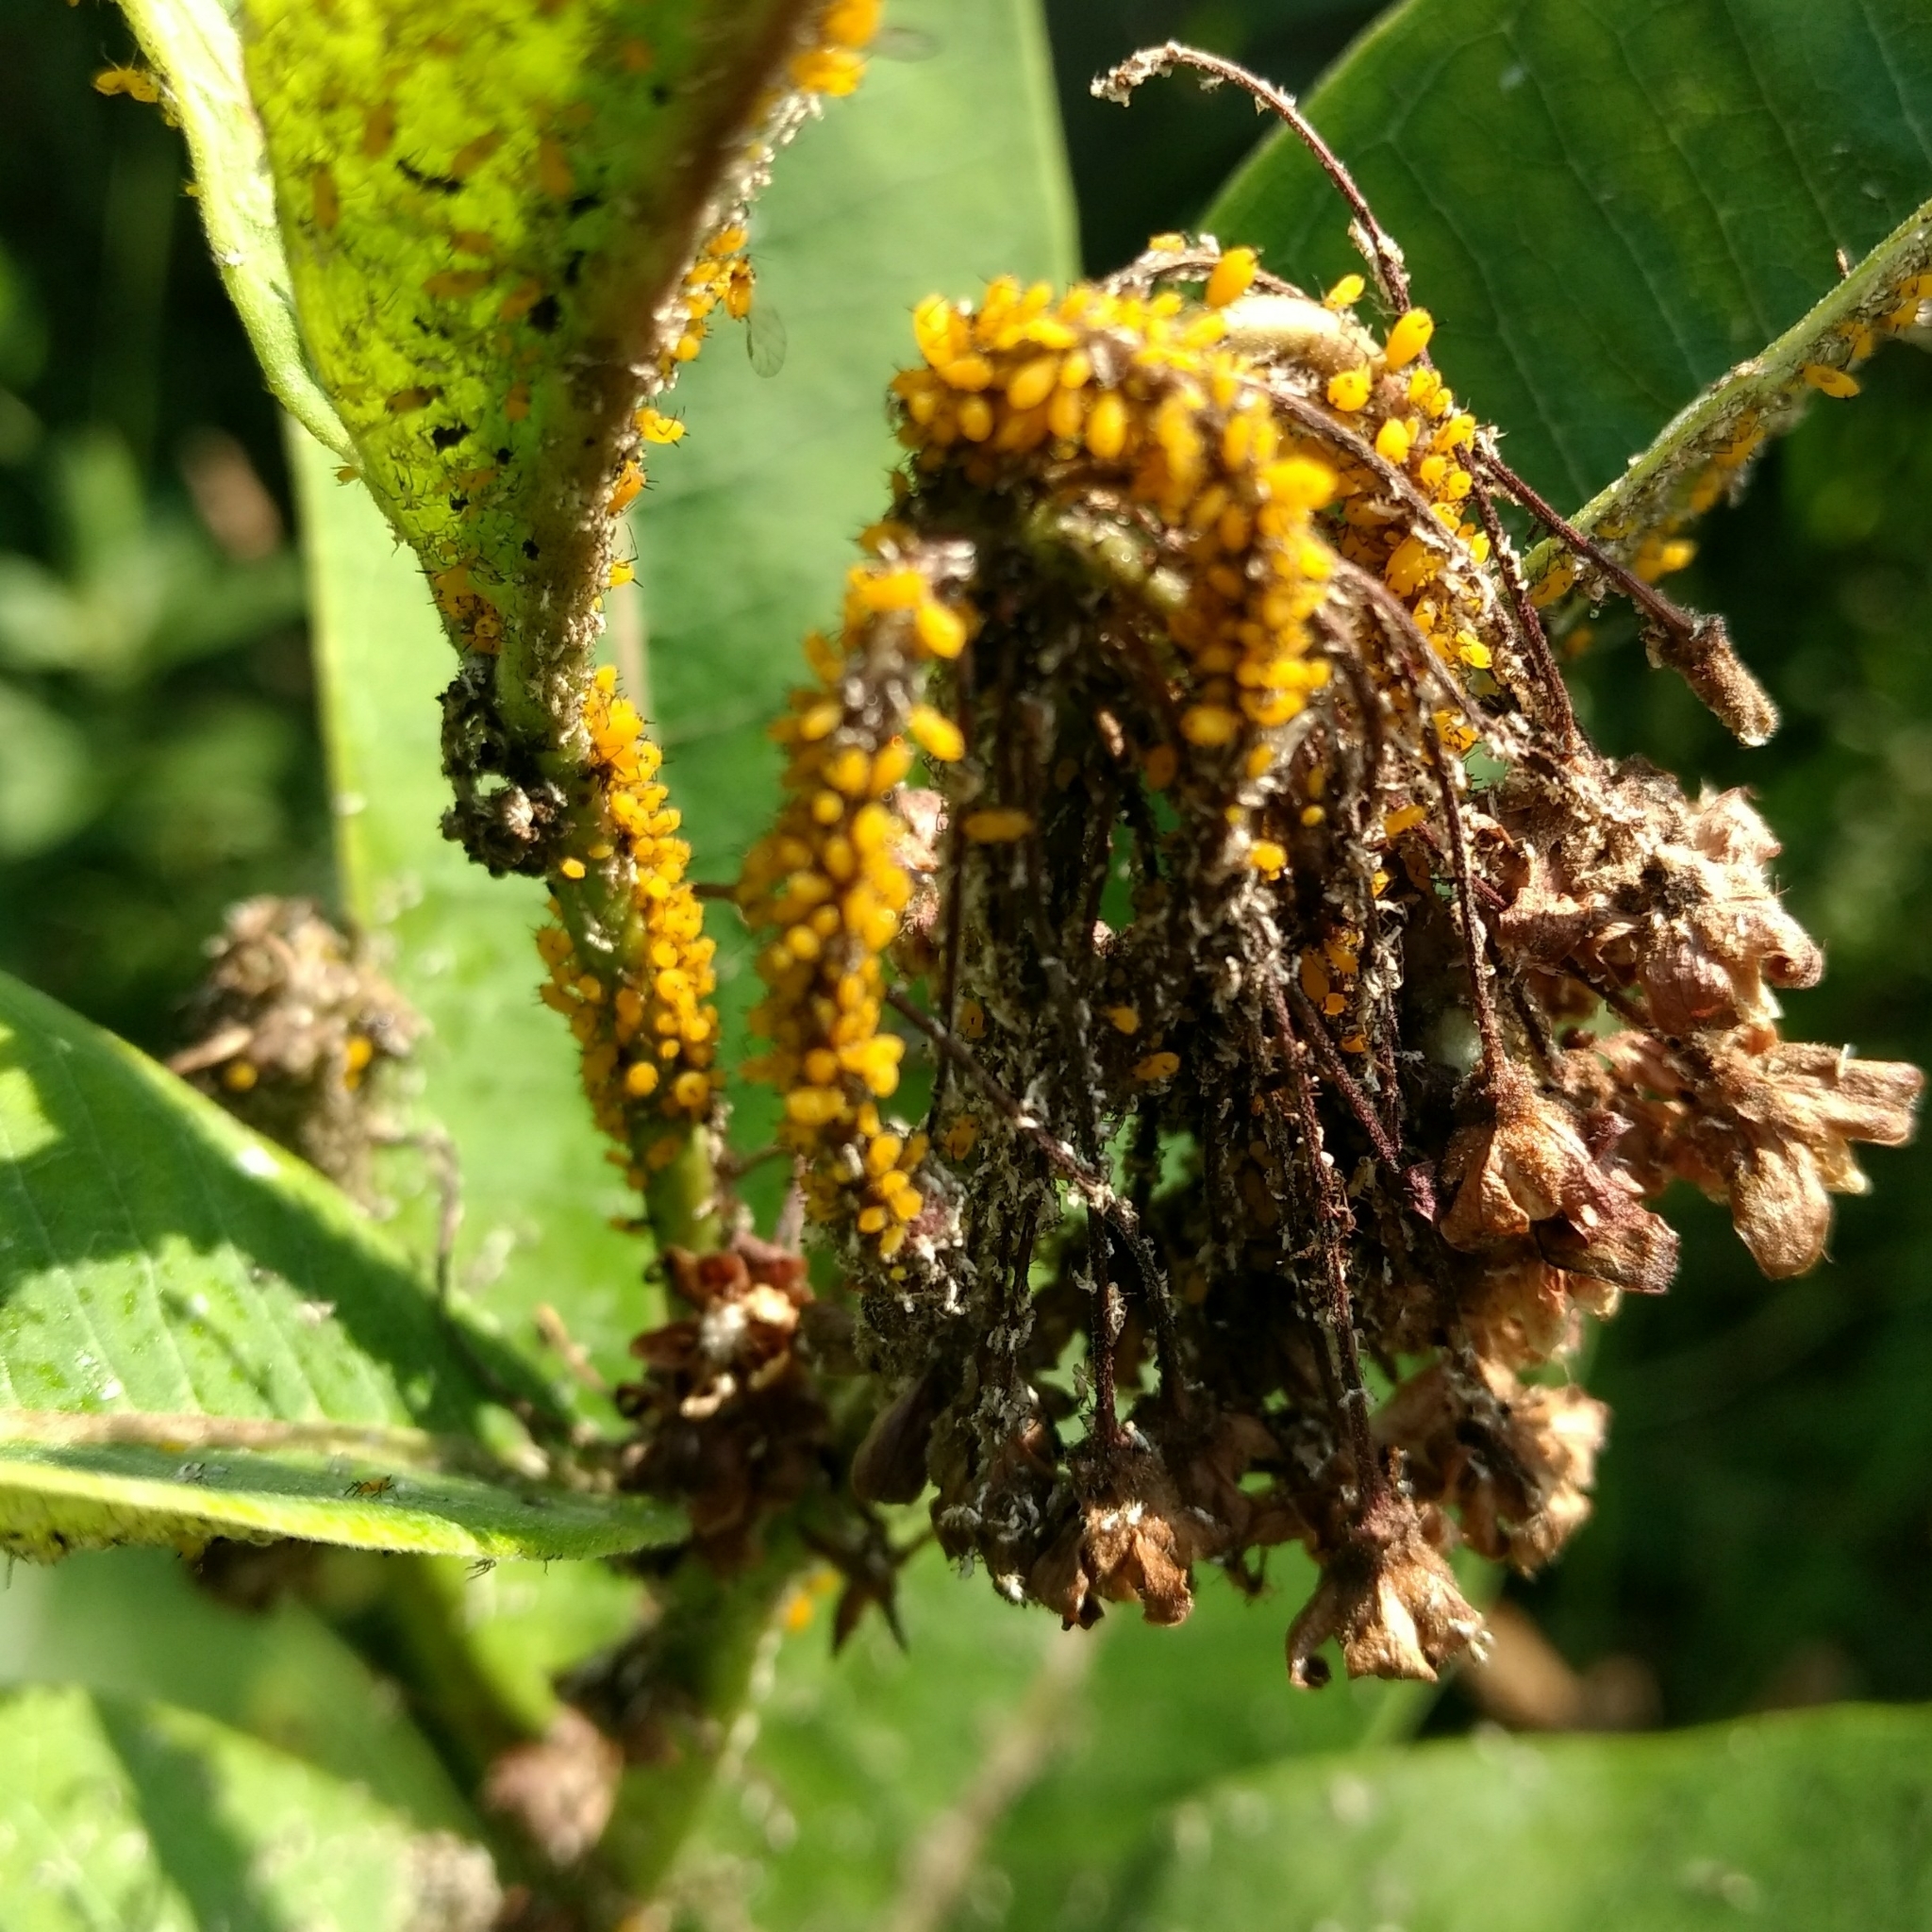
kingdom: Animalia
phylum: Arthropoda
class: Insecta
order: Hemiptera
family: Aphididae
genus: Aphis
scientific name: Aphis nerii
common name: Oleander aphid
